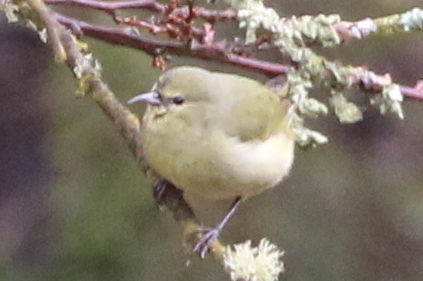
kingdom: Animalia
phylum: Chordata
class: Aves
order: Passeriformes
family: Fringillidae
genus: Chlorodrepanis
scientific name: Chlorodrepanis virens
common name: Hawaii amakihi
